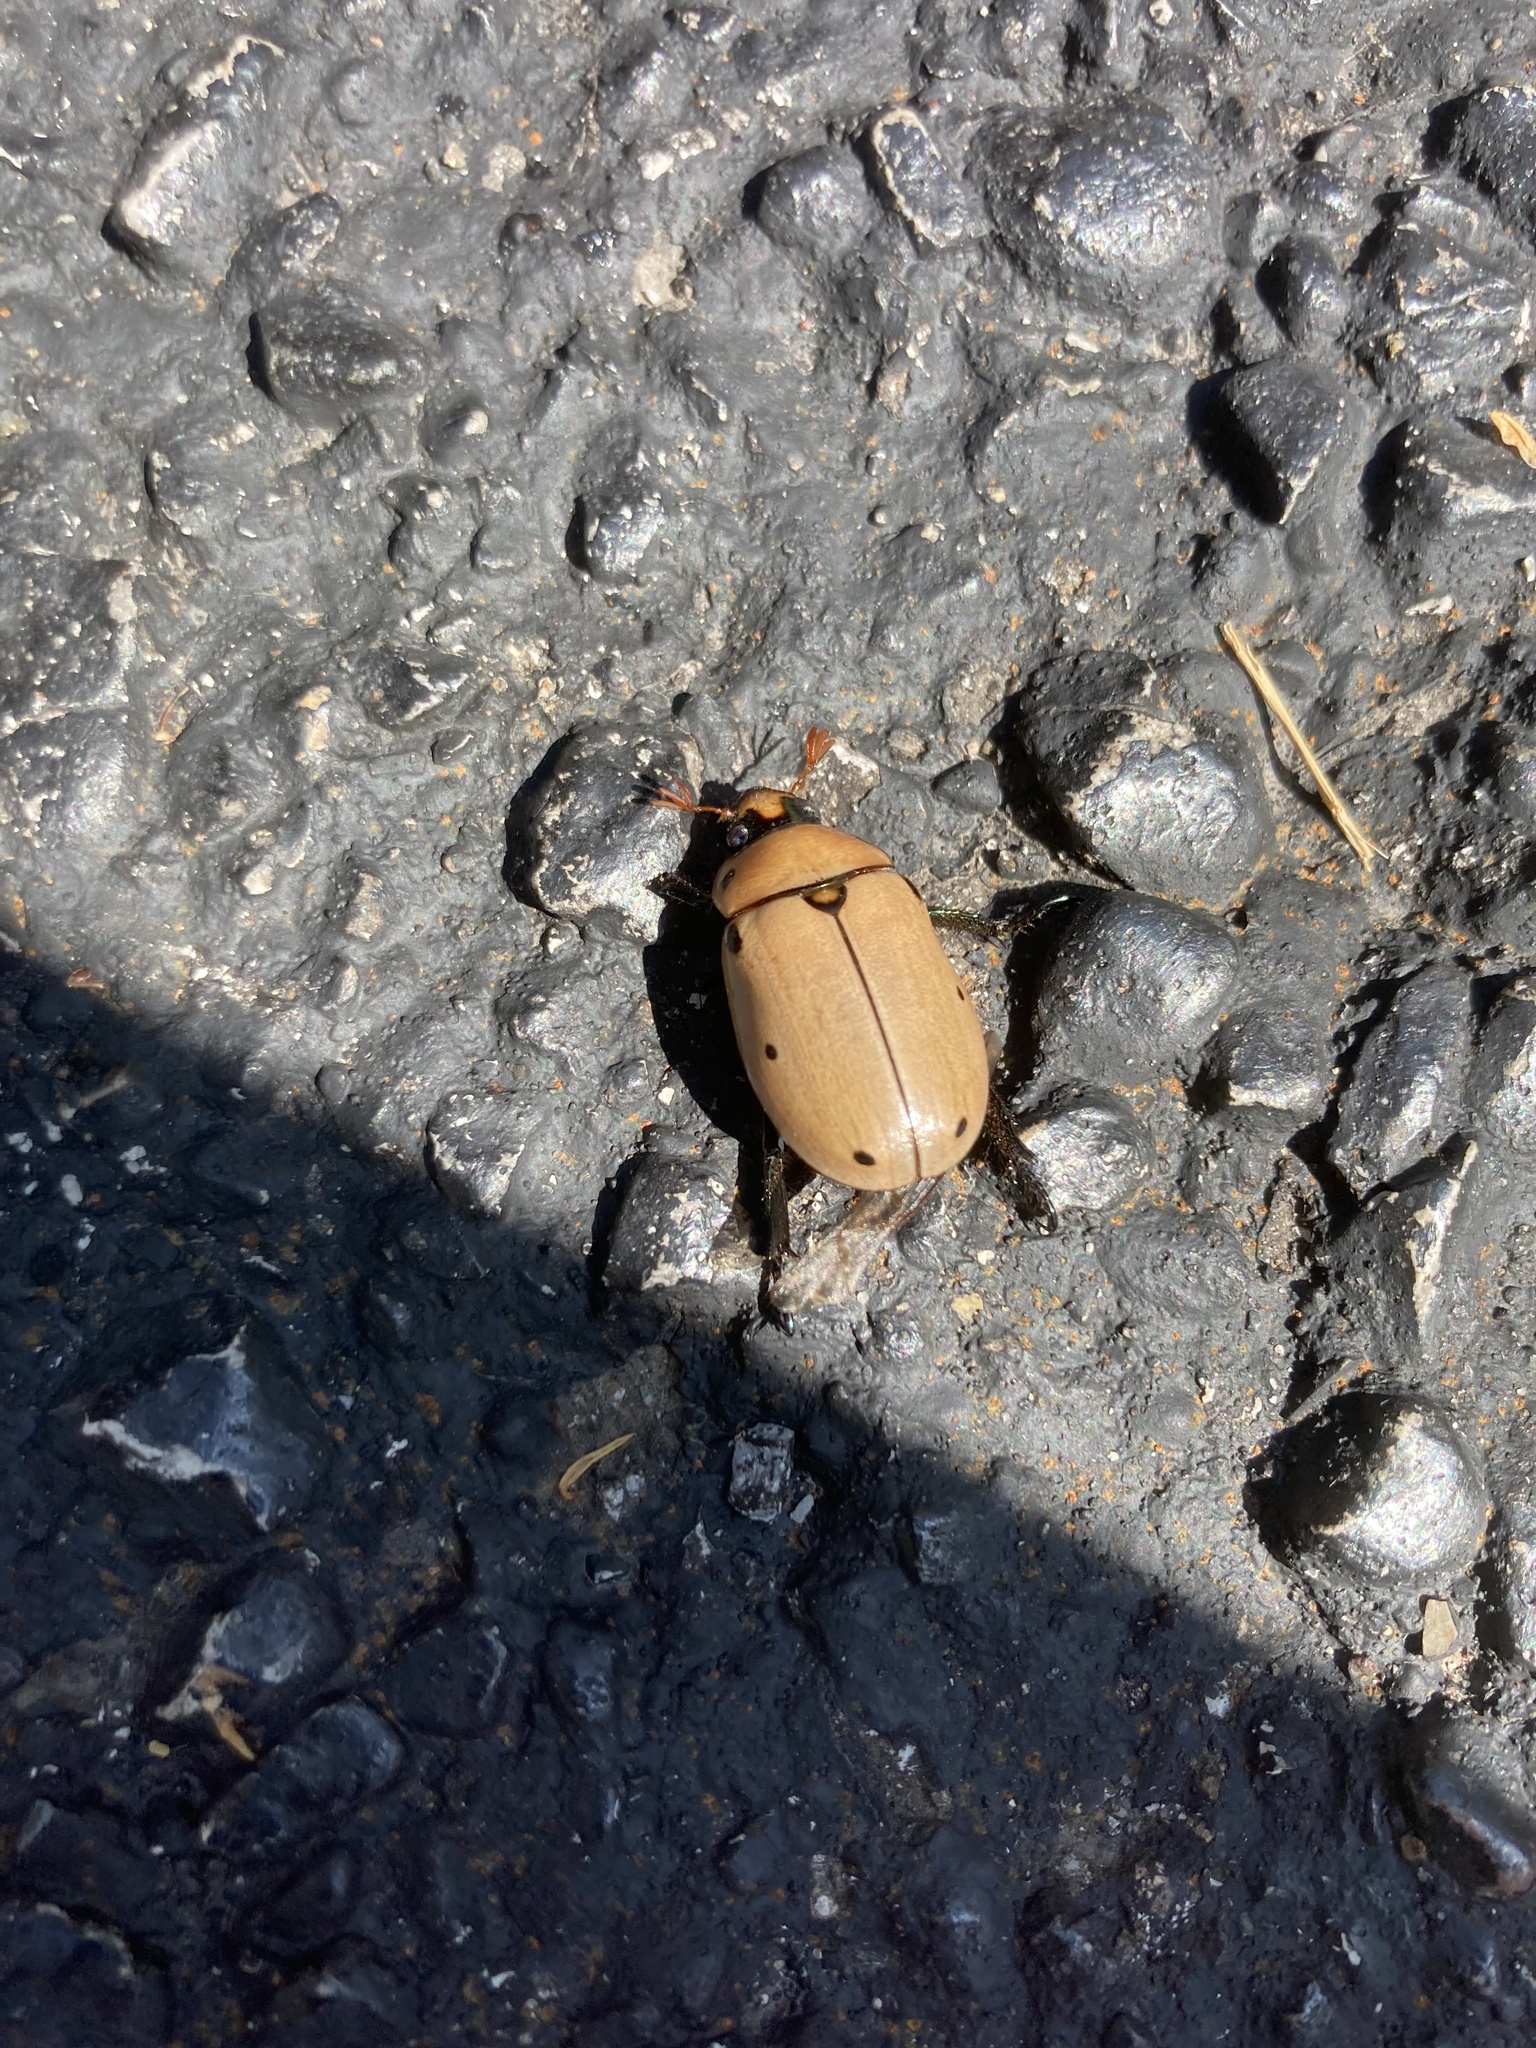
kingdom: Animalia
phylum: Arthropoda
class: Insecta
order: Coleoptera
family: Scarabaeidae
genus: Pelidnota
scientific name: Pelidnota punctata
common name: Grapevine beetle
